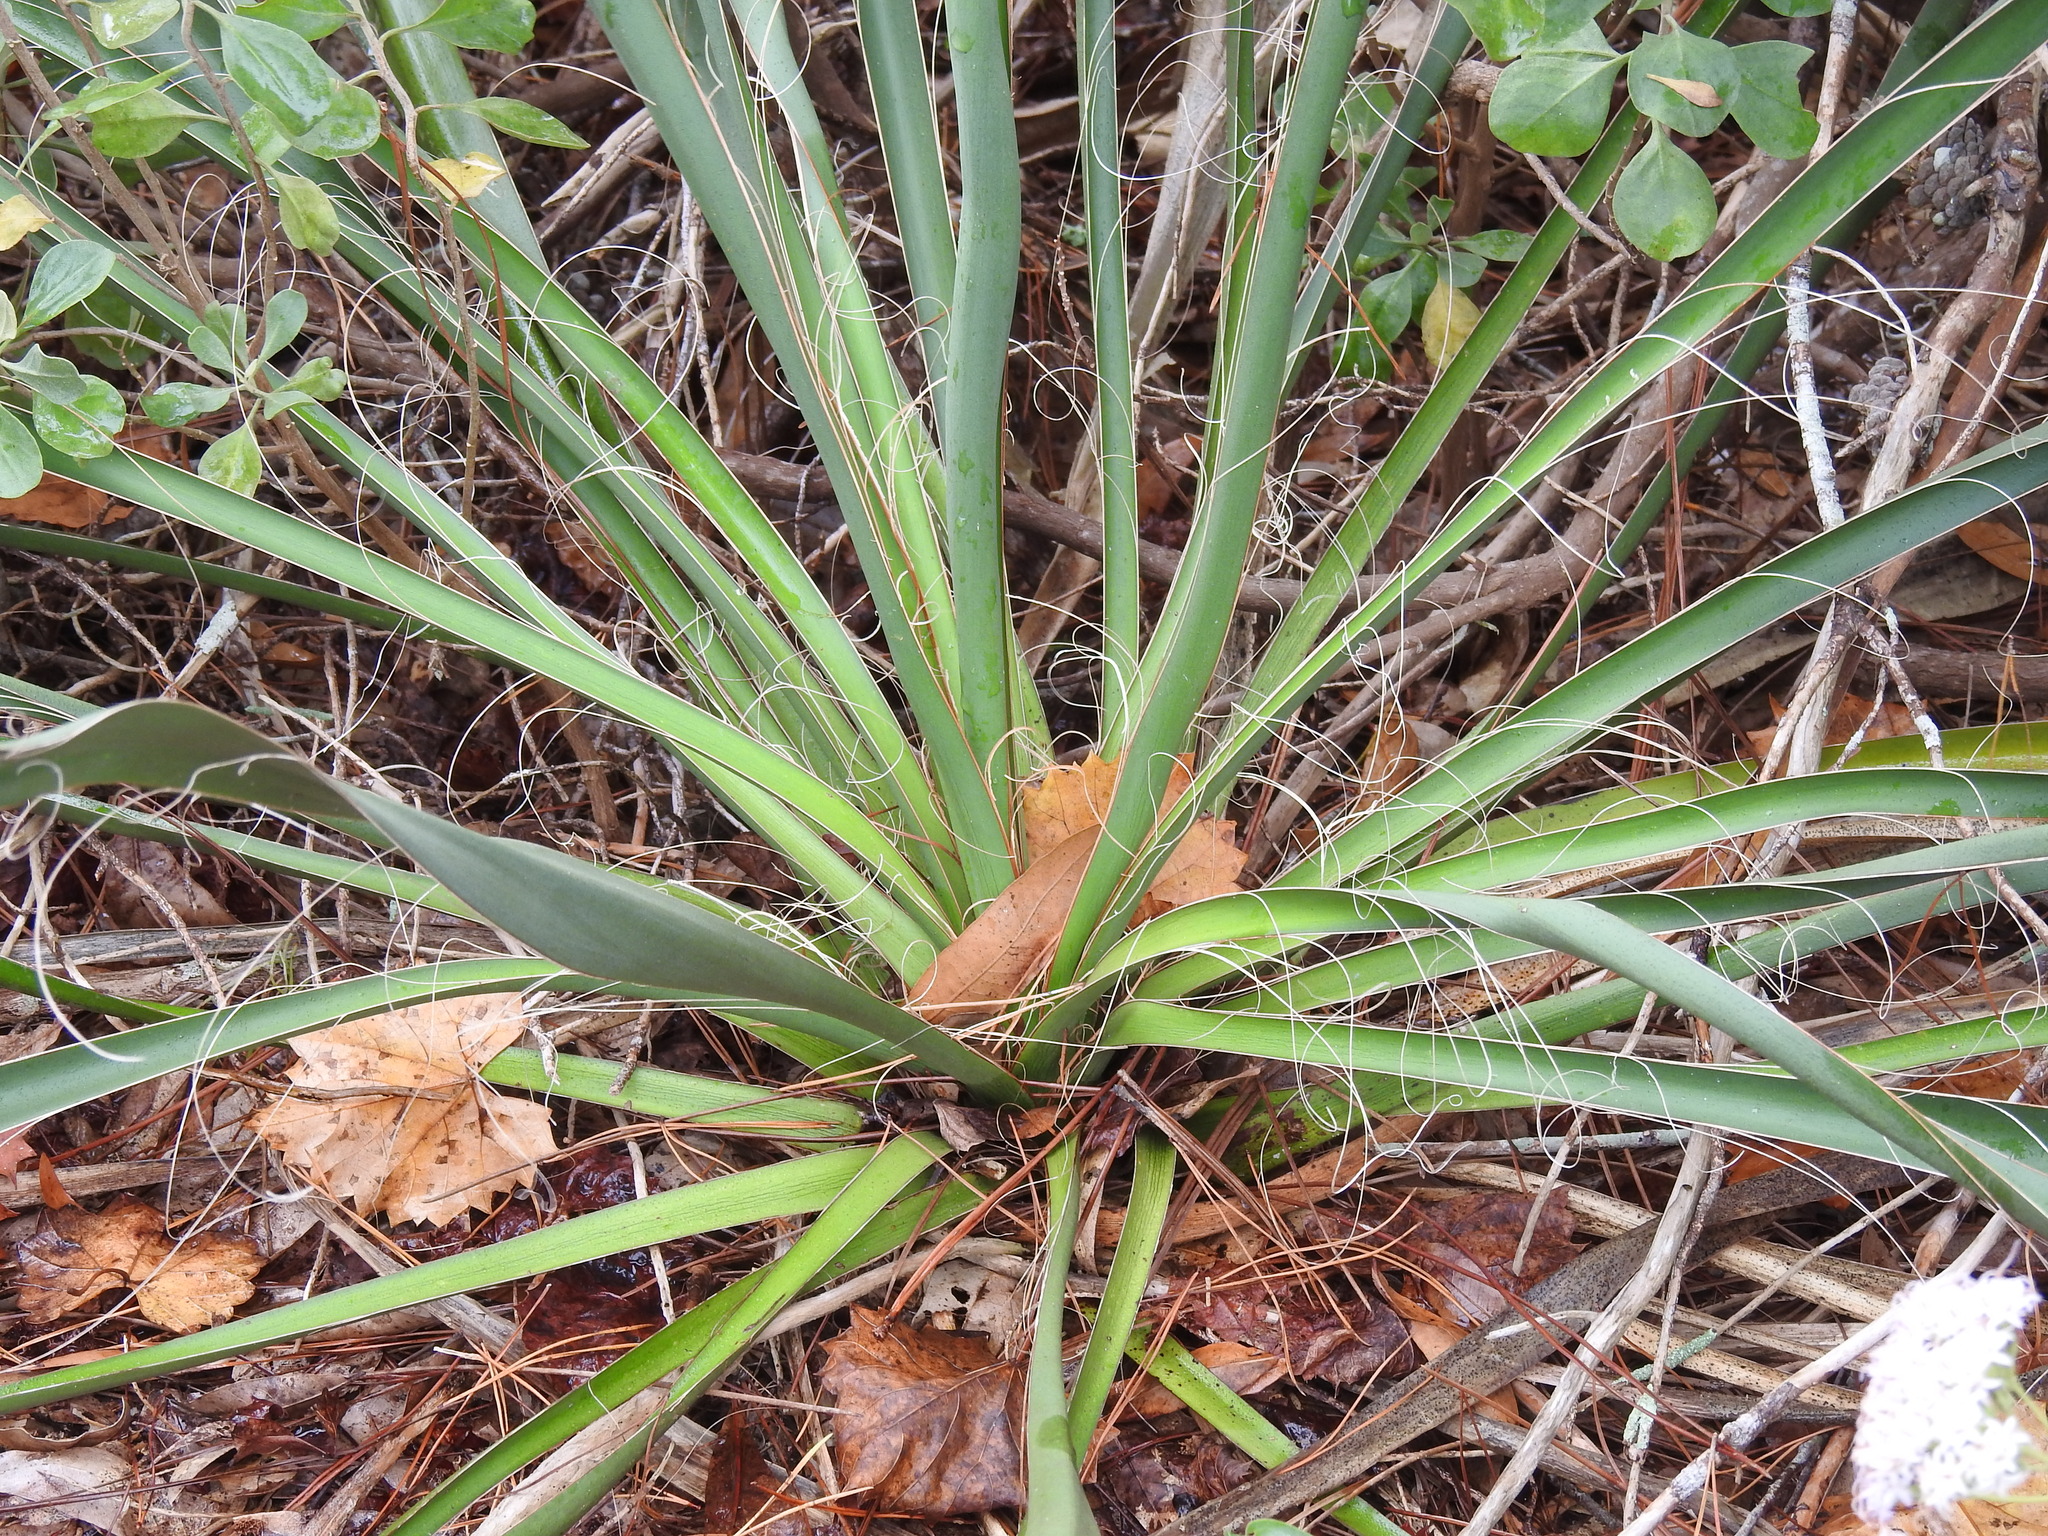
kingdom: Plantae
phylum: Tracheophyta
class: Liliopsida
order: Asparagales
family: Asparagaceae
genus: Yucca
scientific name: Yucca filamentosa
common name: Adam's-needle
